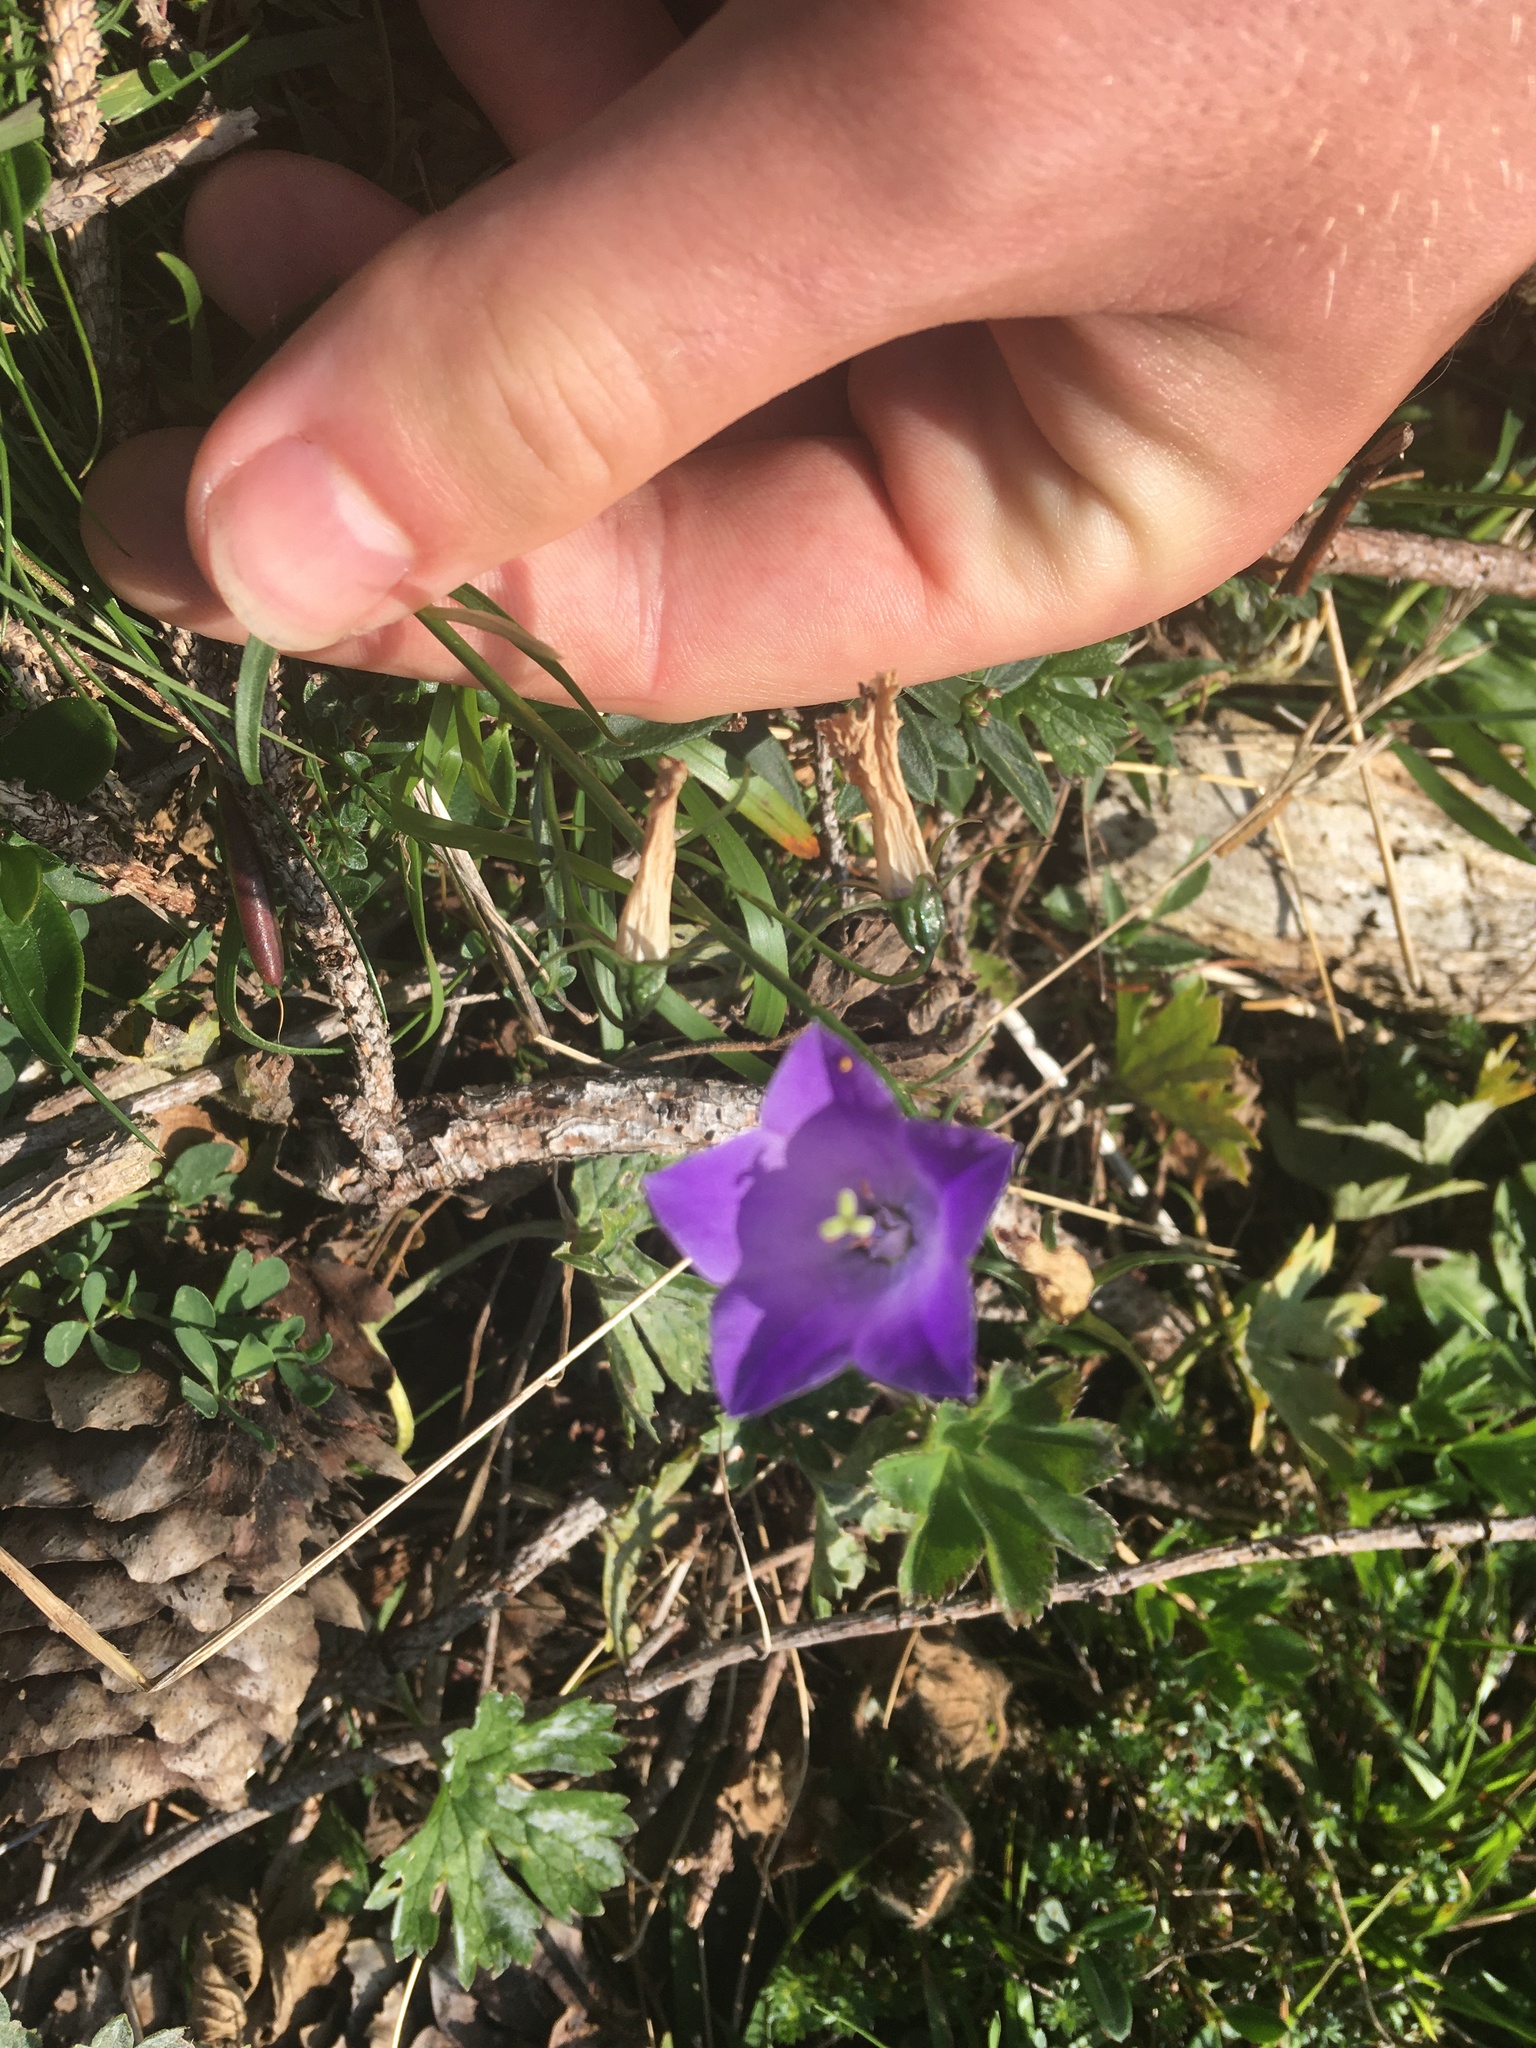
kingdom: Plantae
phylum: Tracheophyta
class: Magnoliopsida
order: Asterales
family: Campanulaceae
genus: Campanula
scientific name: Campanula rotundifolia
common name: Harebell
